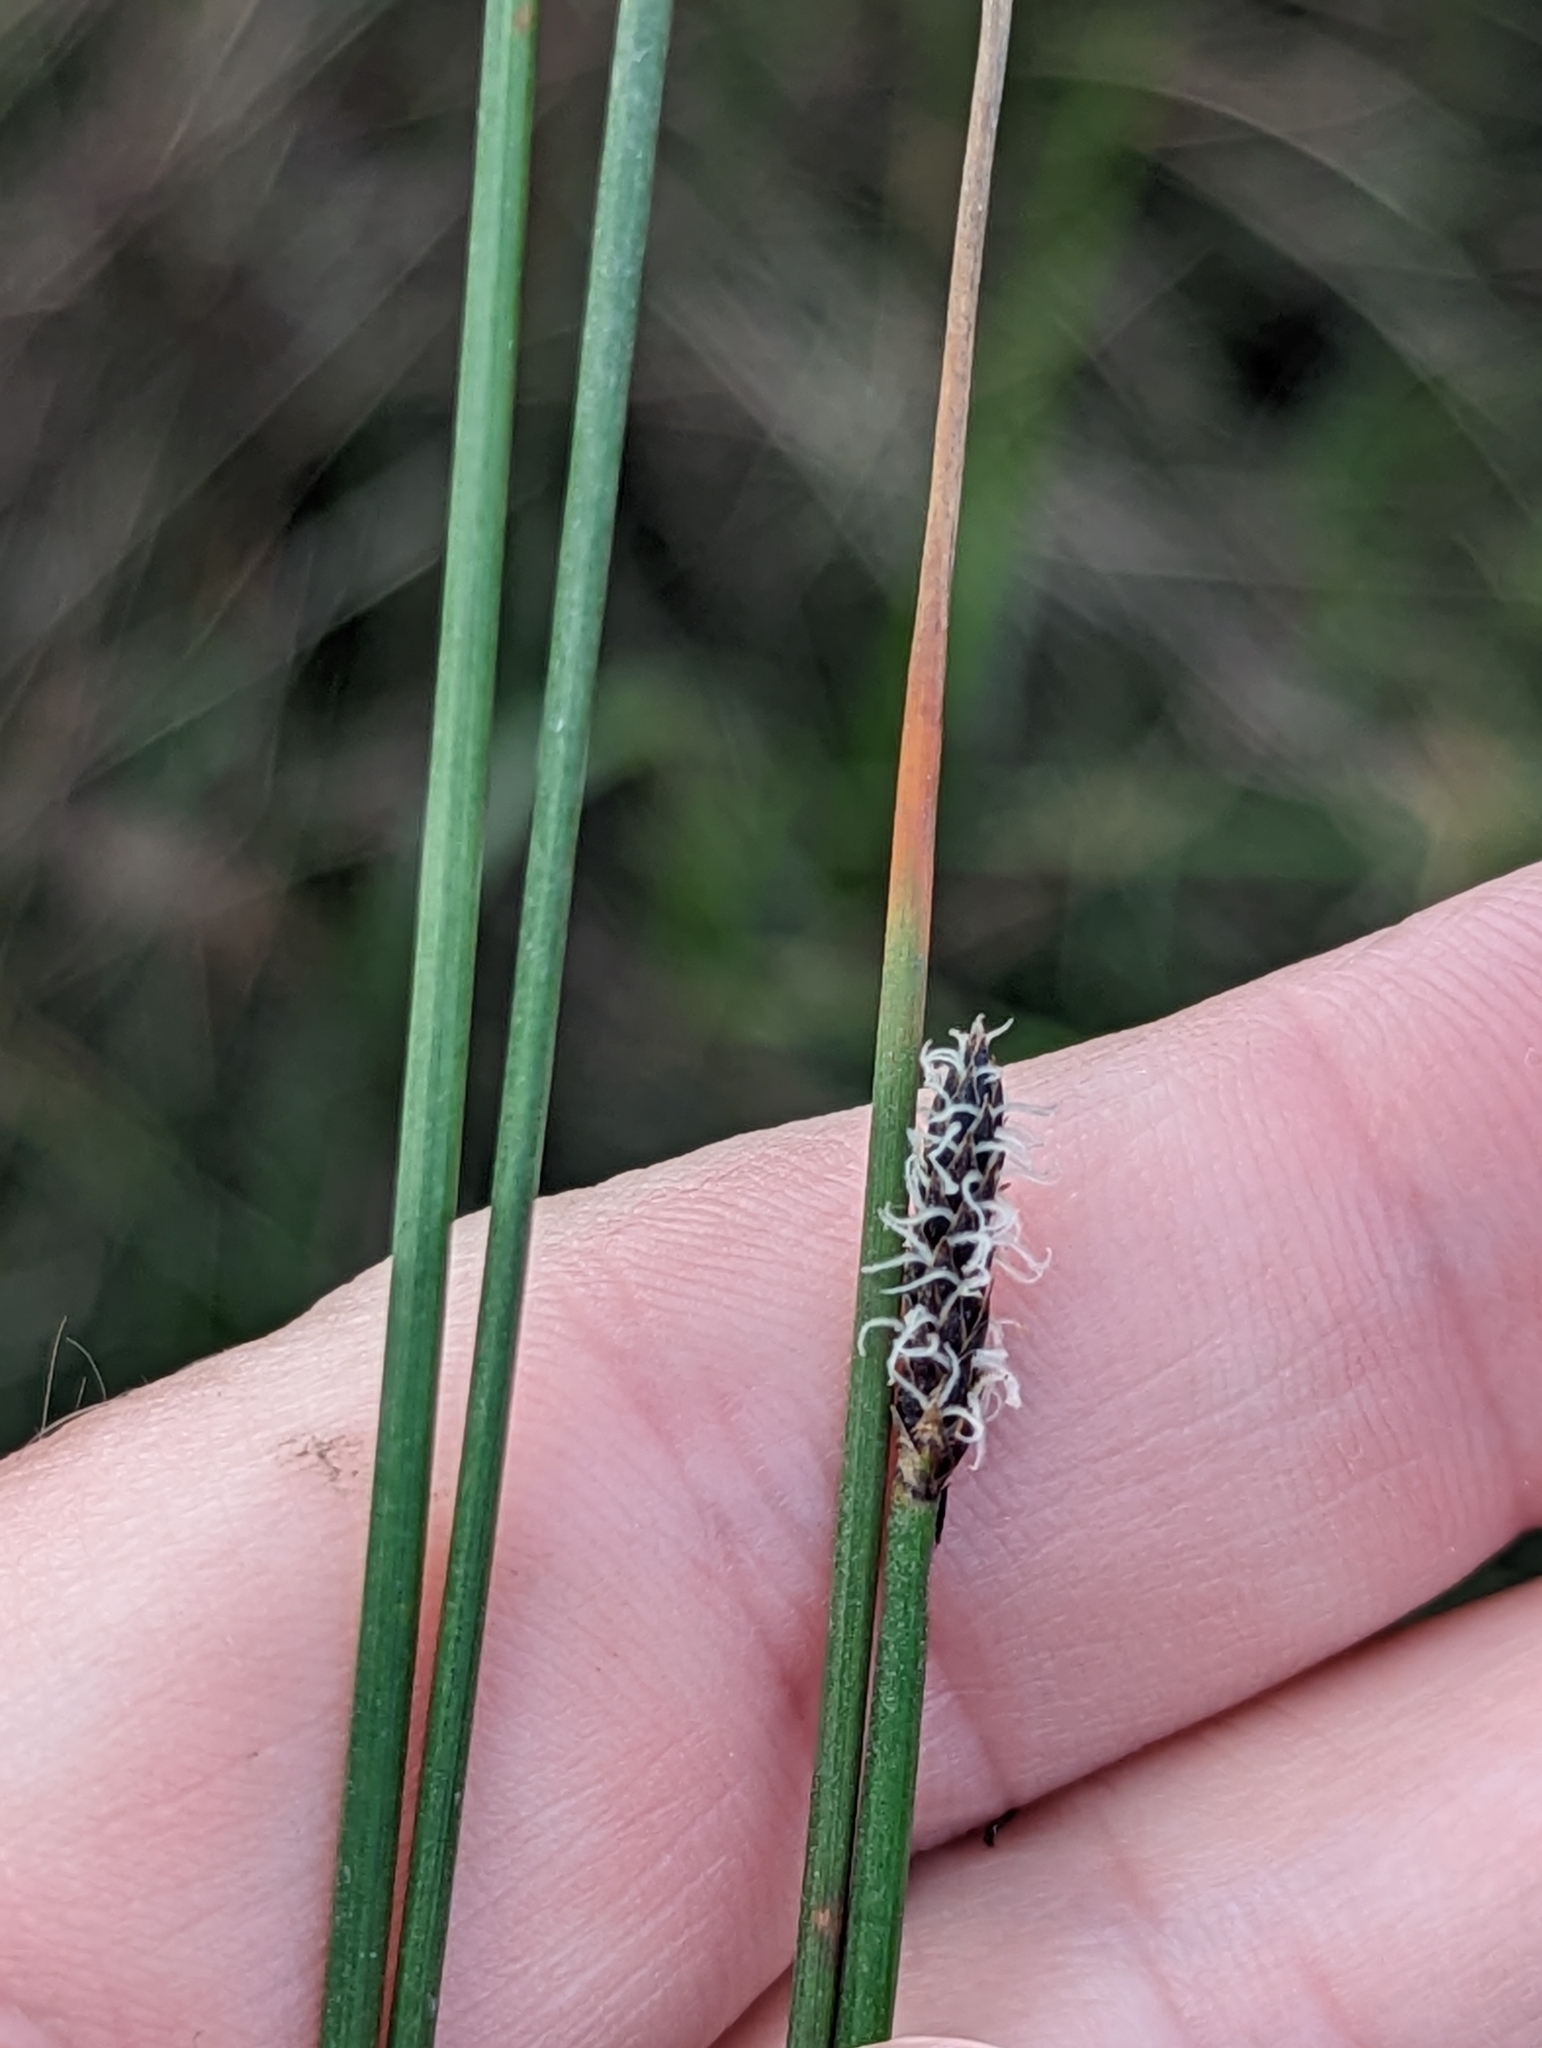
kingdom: Plantae
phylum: Tracheophyta
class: Liliopsida
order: Poales
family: Cyperaceae
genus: Eleocharis
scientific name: Eleocharis acuta
